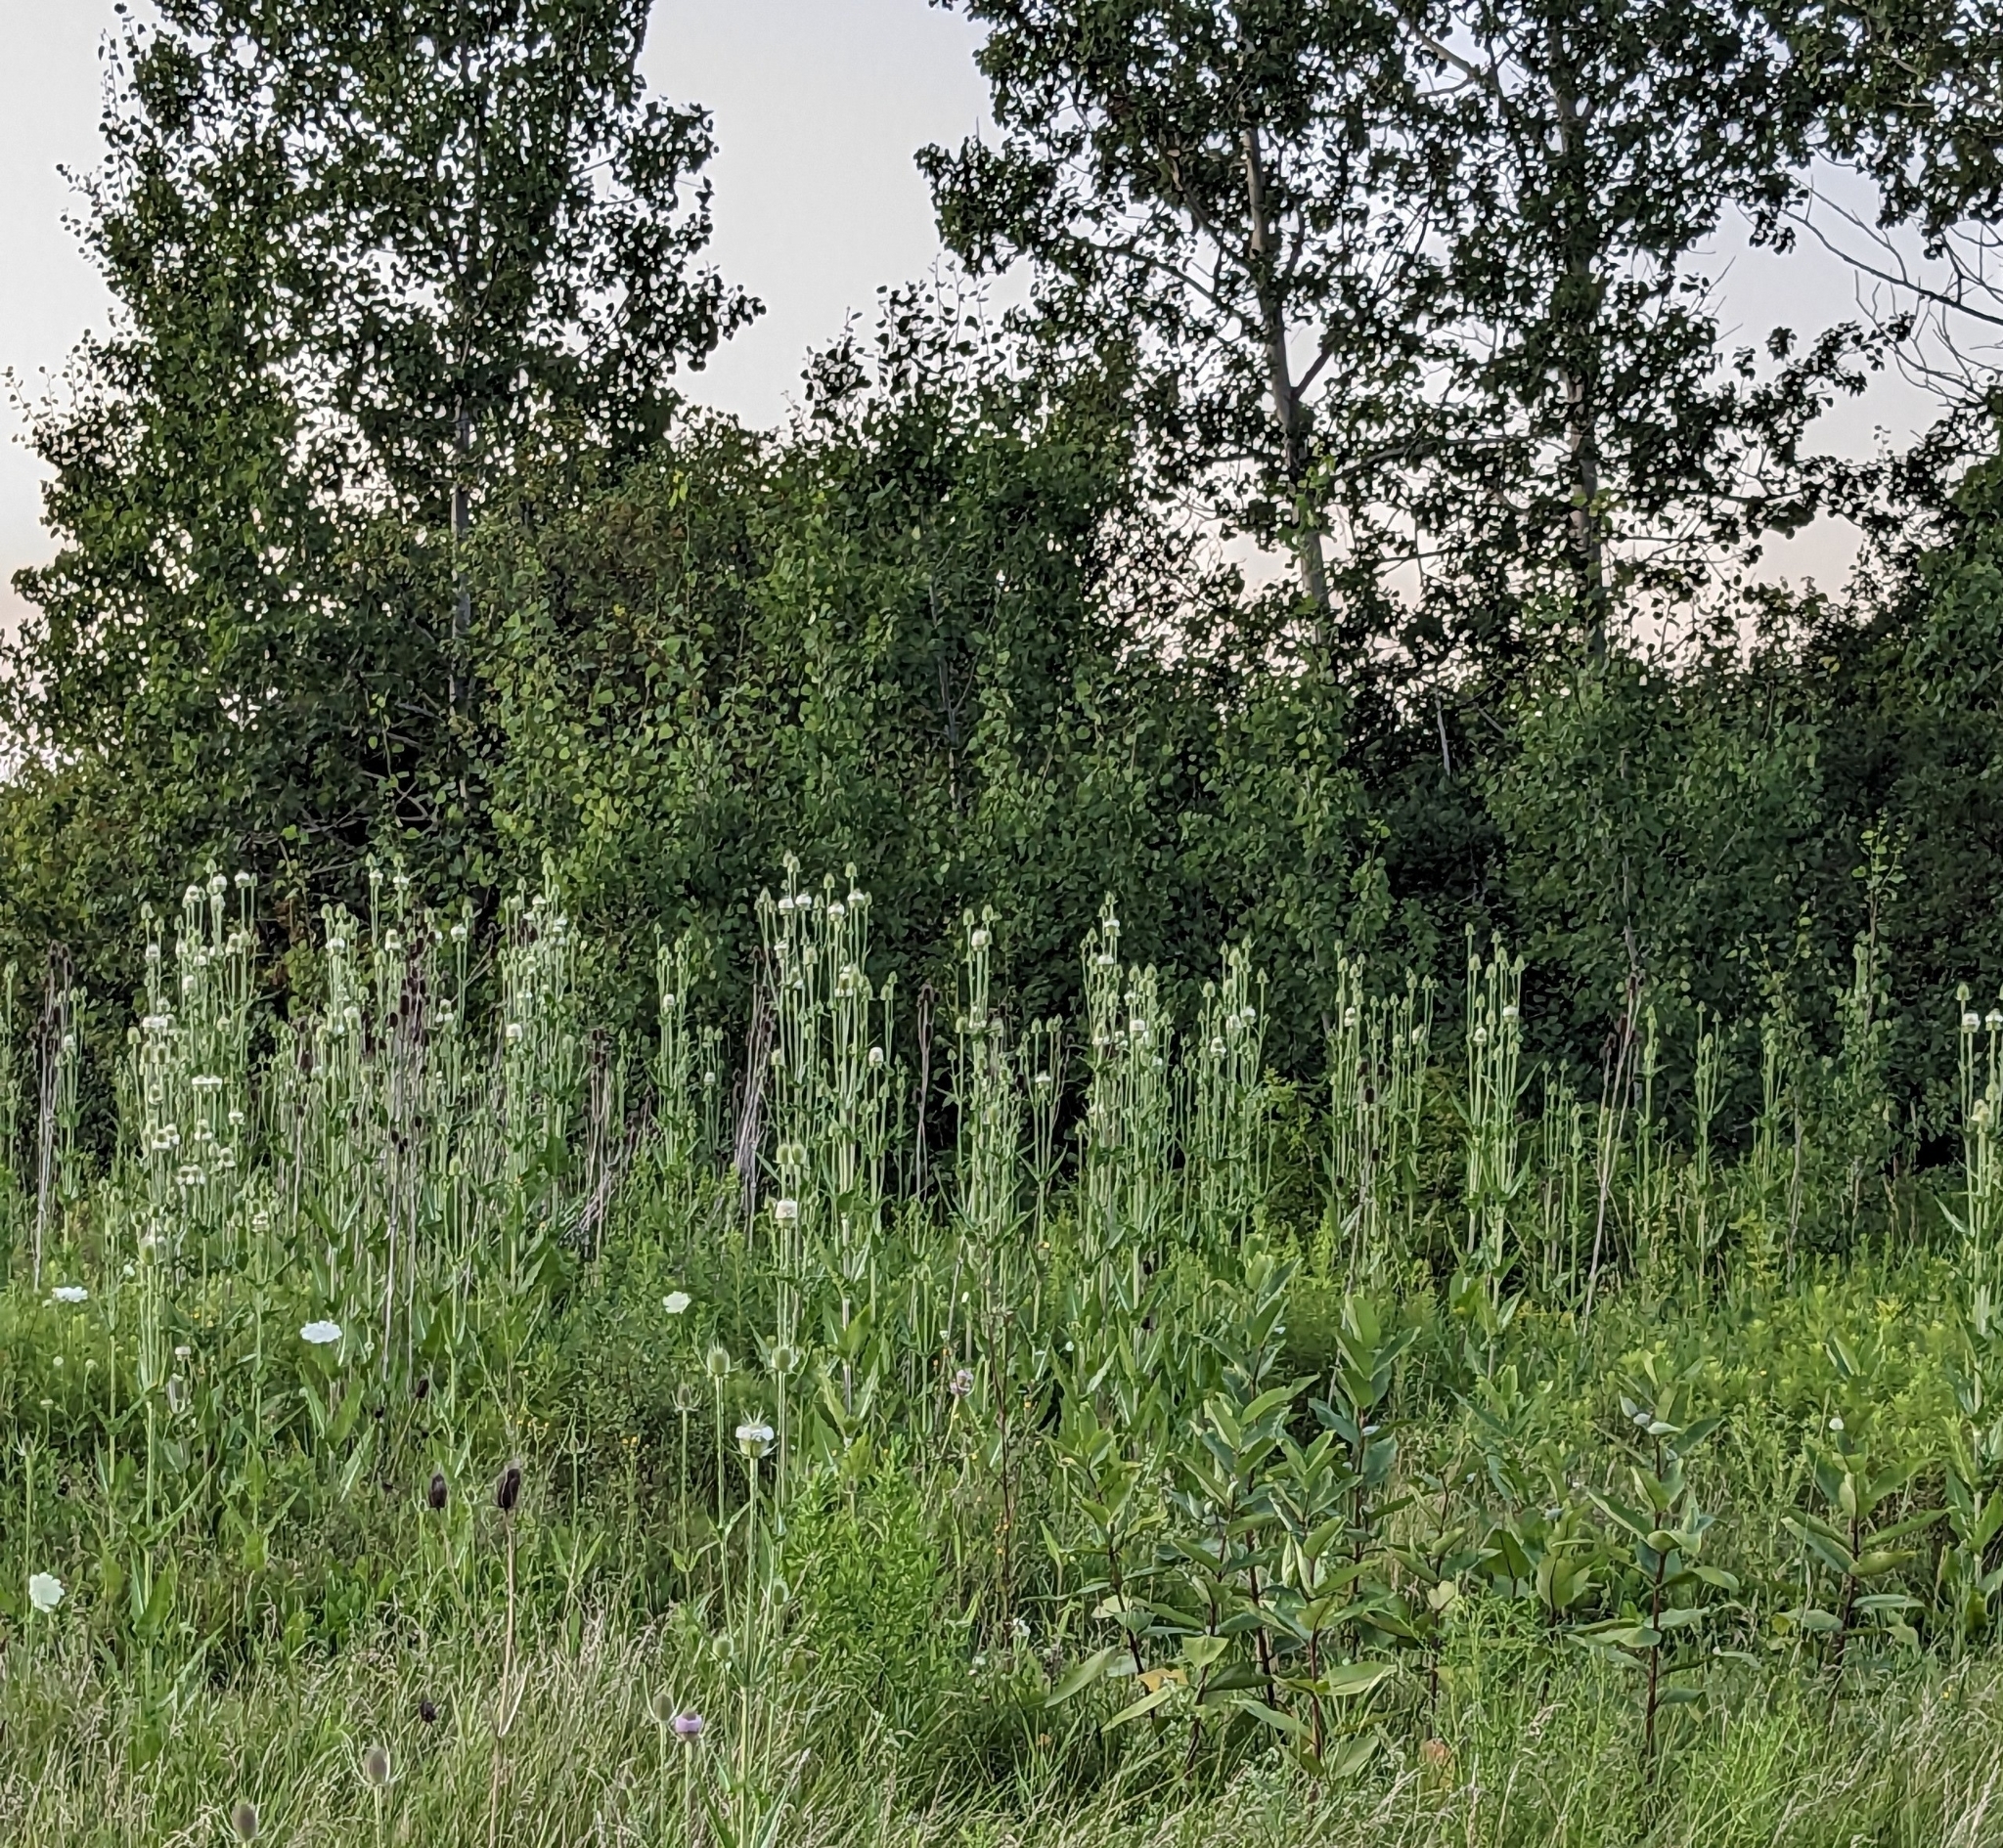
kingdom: Plantae
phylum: Tracheophyta
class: Magnoliopsida
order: Dipsacales
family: Caprifoliaceae
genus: Dipsacus
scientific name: Dipsacus laciniatus
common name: Cut-leaved teasel
